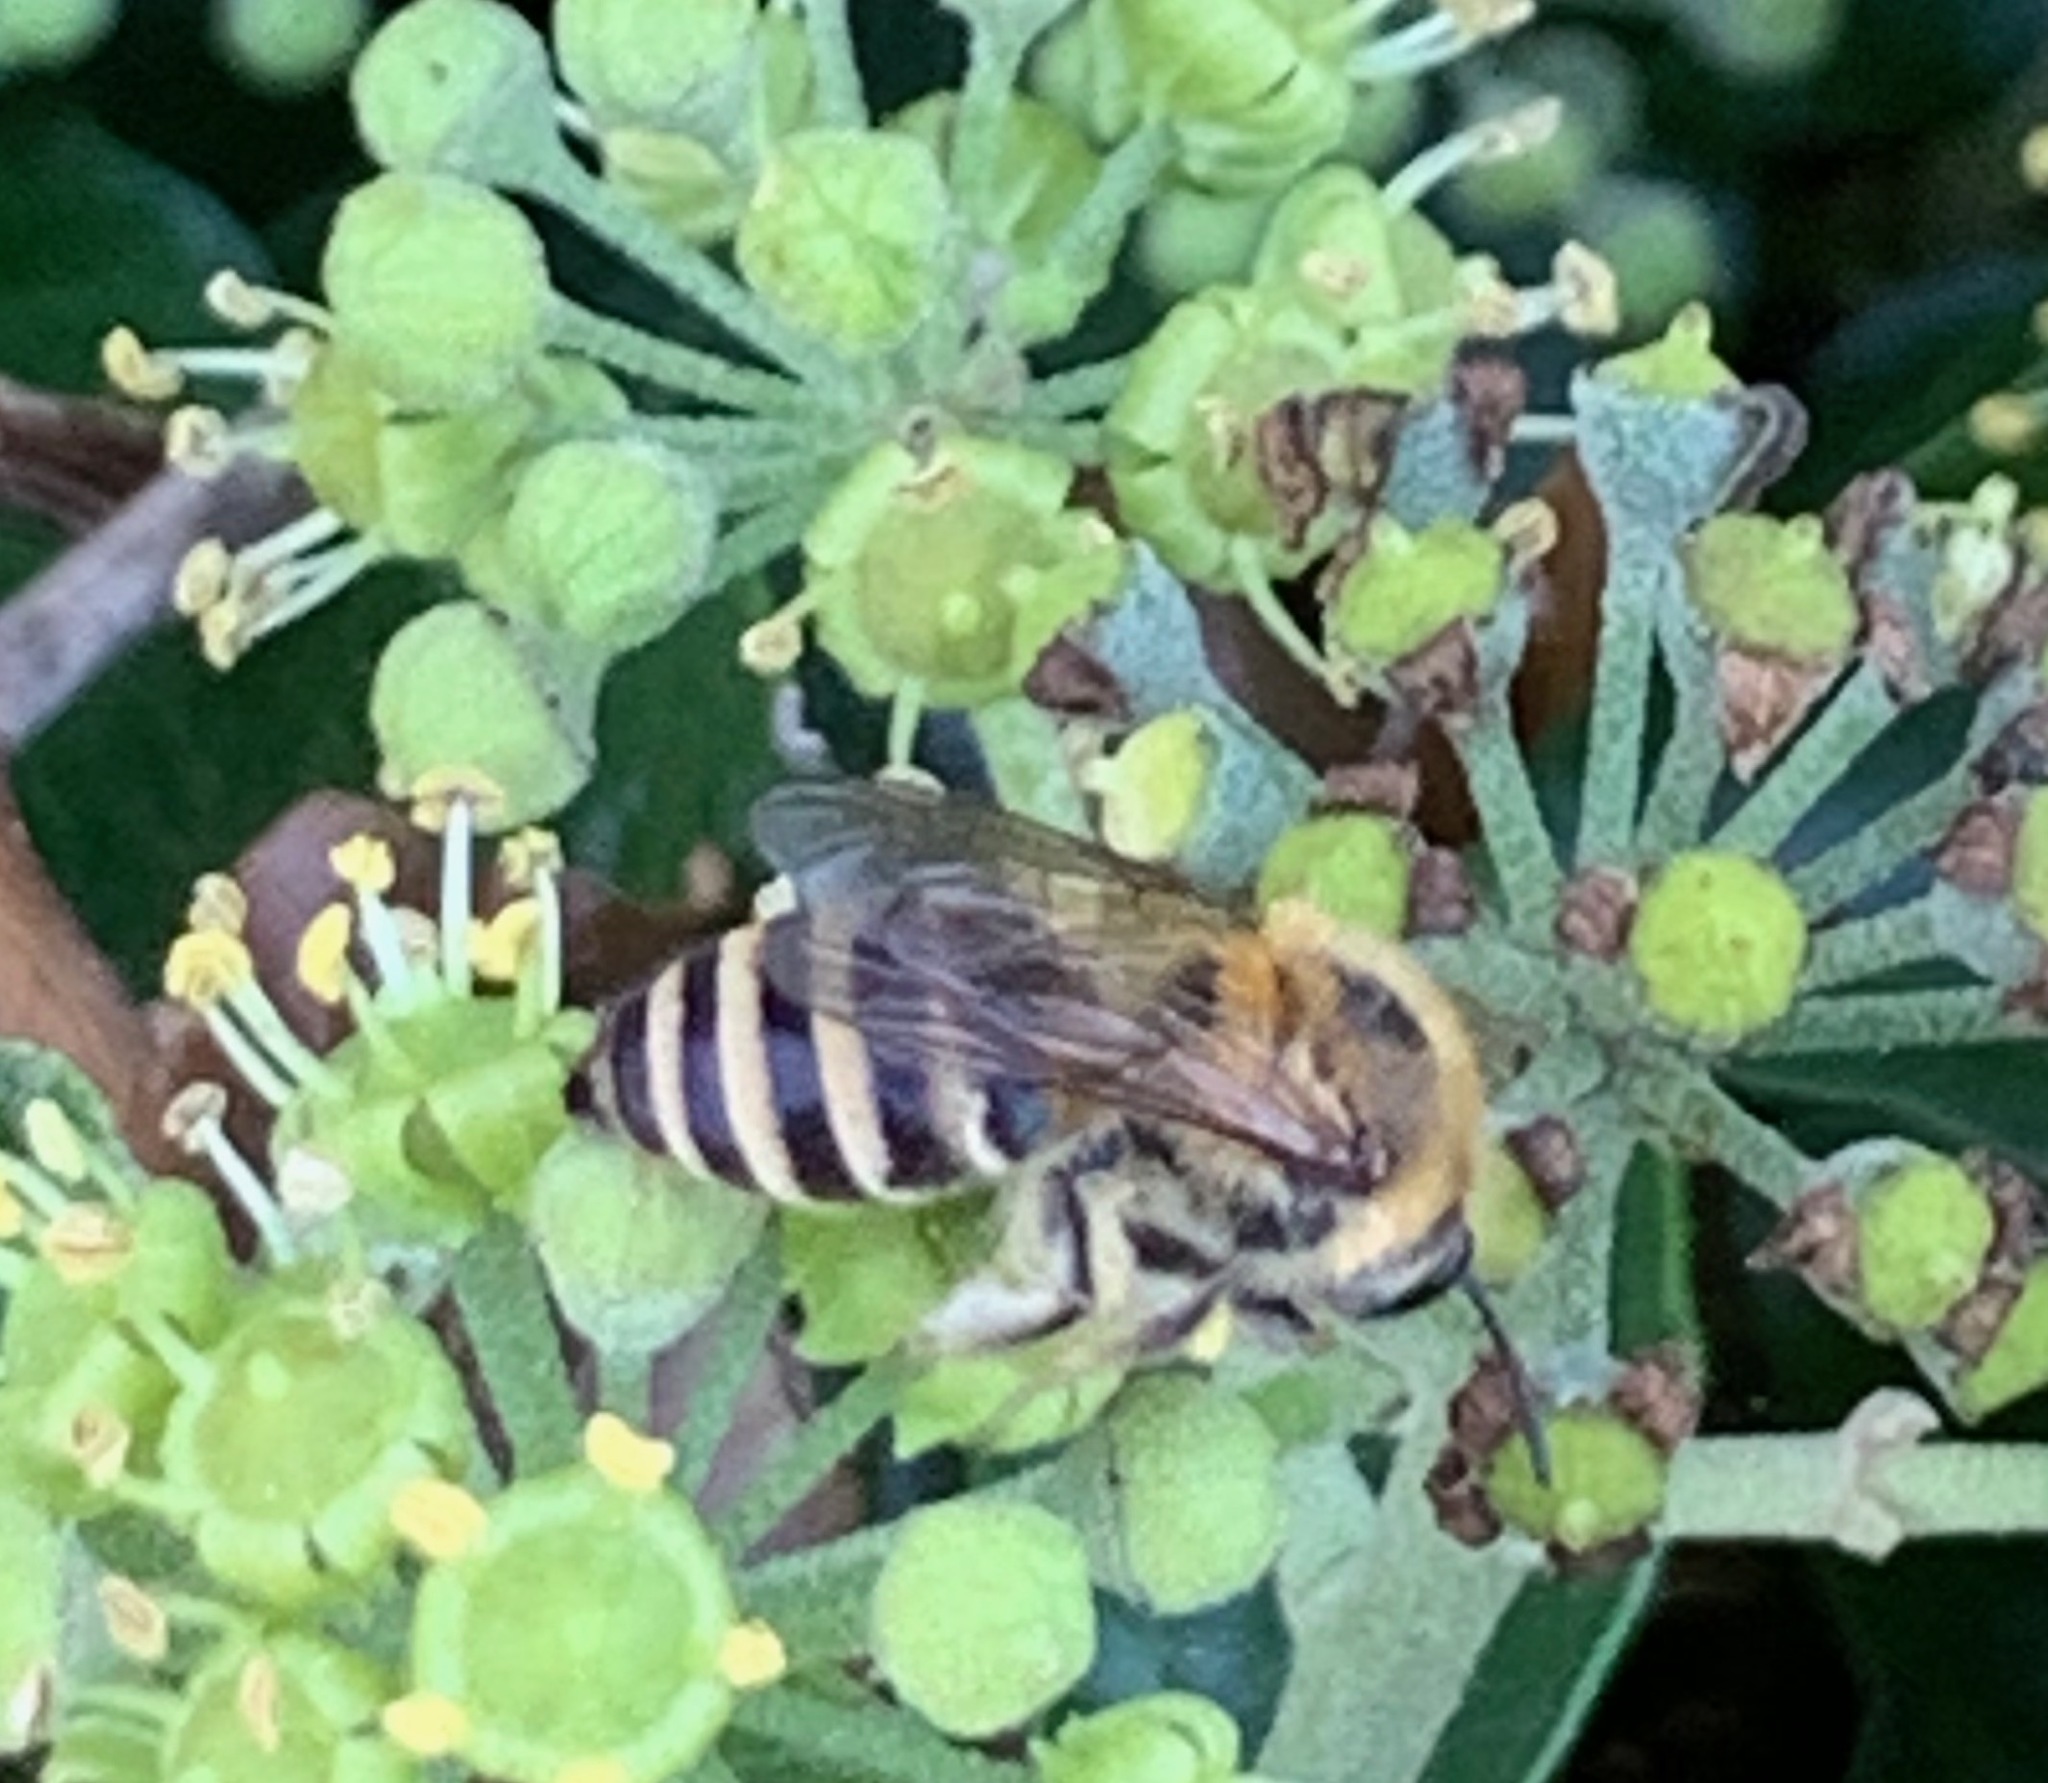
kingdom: Animalia
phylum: Arthropoda
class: Insecta
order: Hymenoptera
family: Colletidae
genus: Colletes
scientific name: Colletes hederae
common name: Ivy bee
